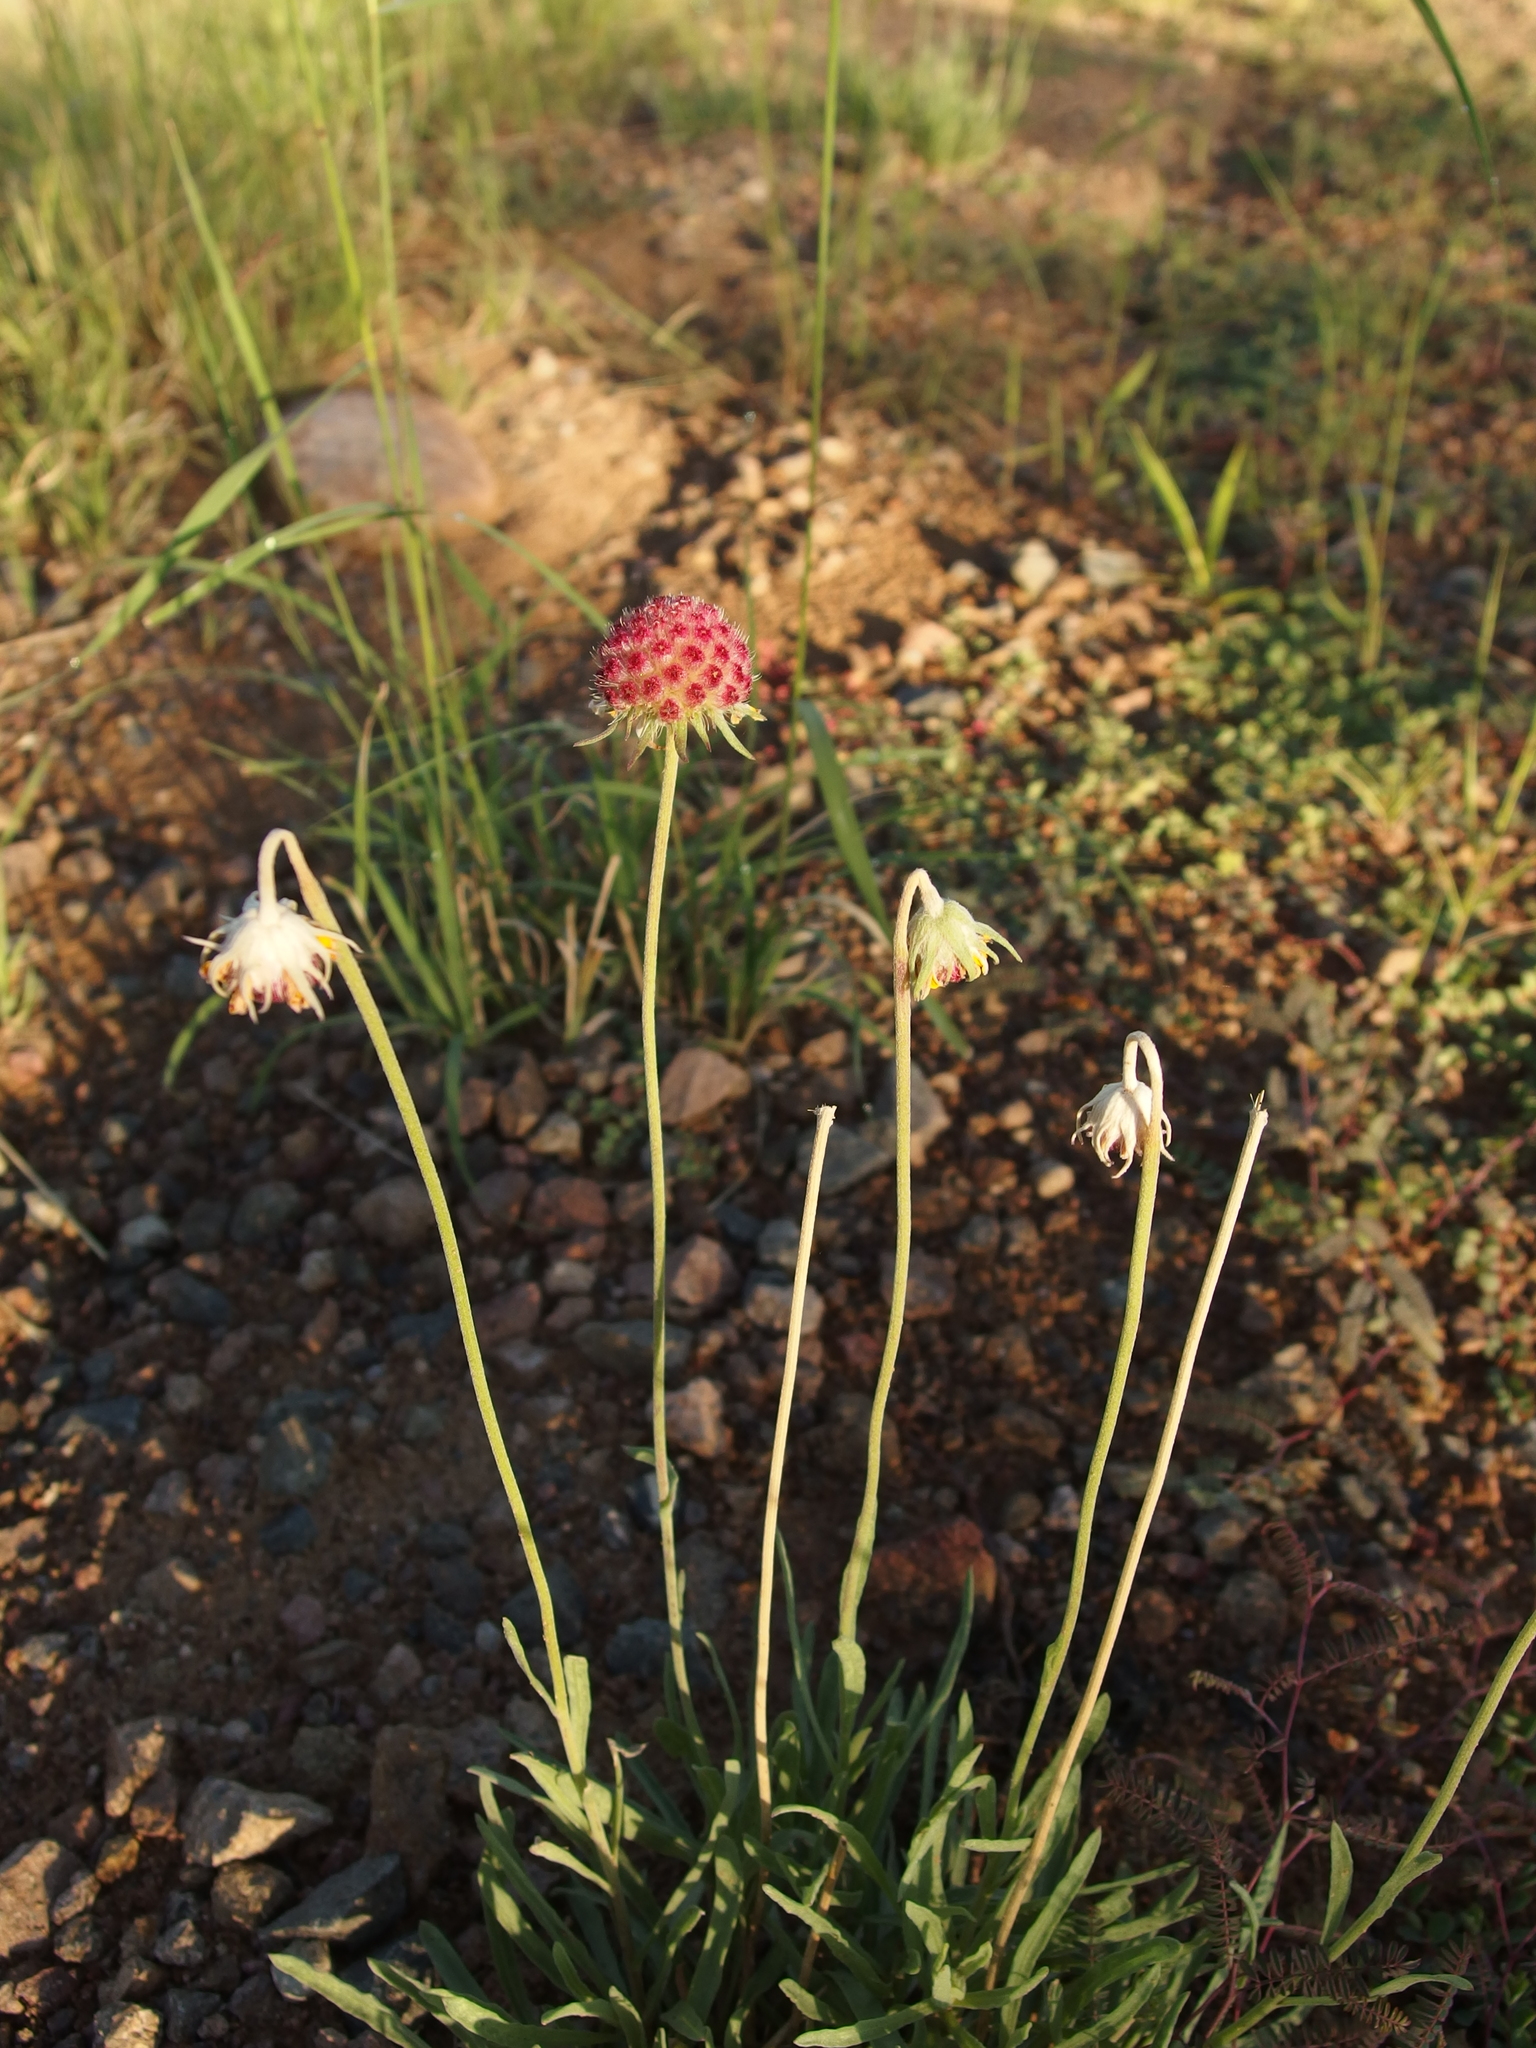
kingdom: Plantae
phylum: Tracheophyta
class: Magnoliopsida
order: Asterales
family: Asteraceae
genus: Gaillardia
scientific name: Gaillardia pinnatifida
